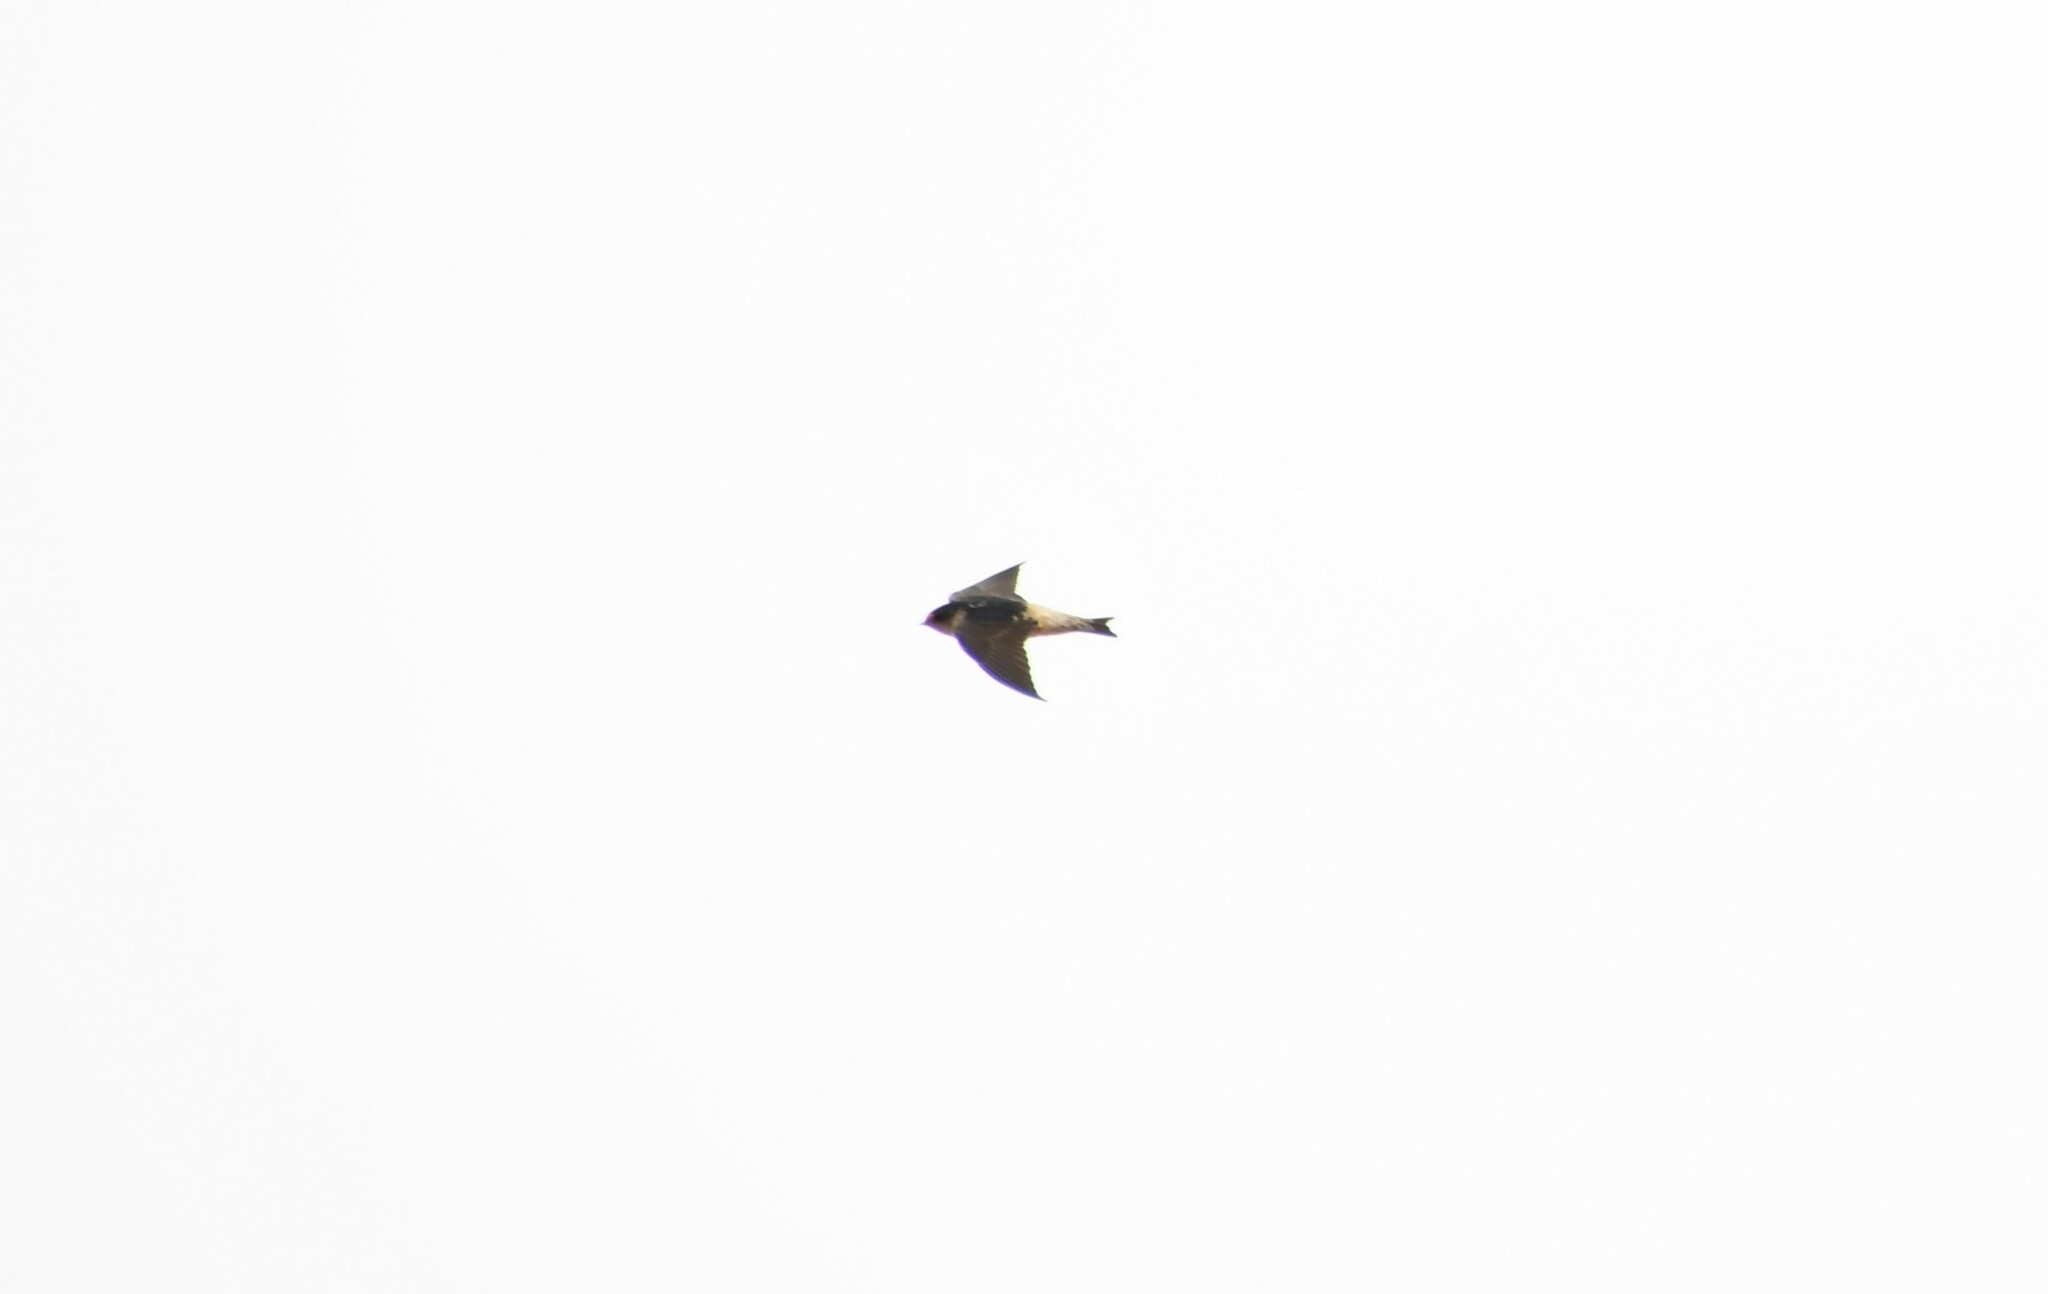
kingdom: Animalia
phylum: Chordata
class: Aves
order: Passeriformes
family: Hirundinidae
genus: Petrochelidon
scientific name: Petrochelidon nigricans
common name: Tree martin
